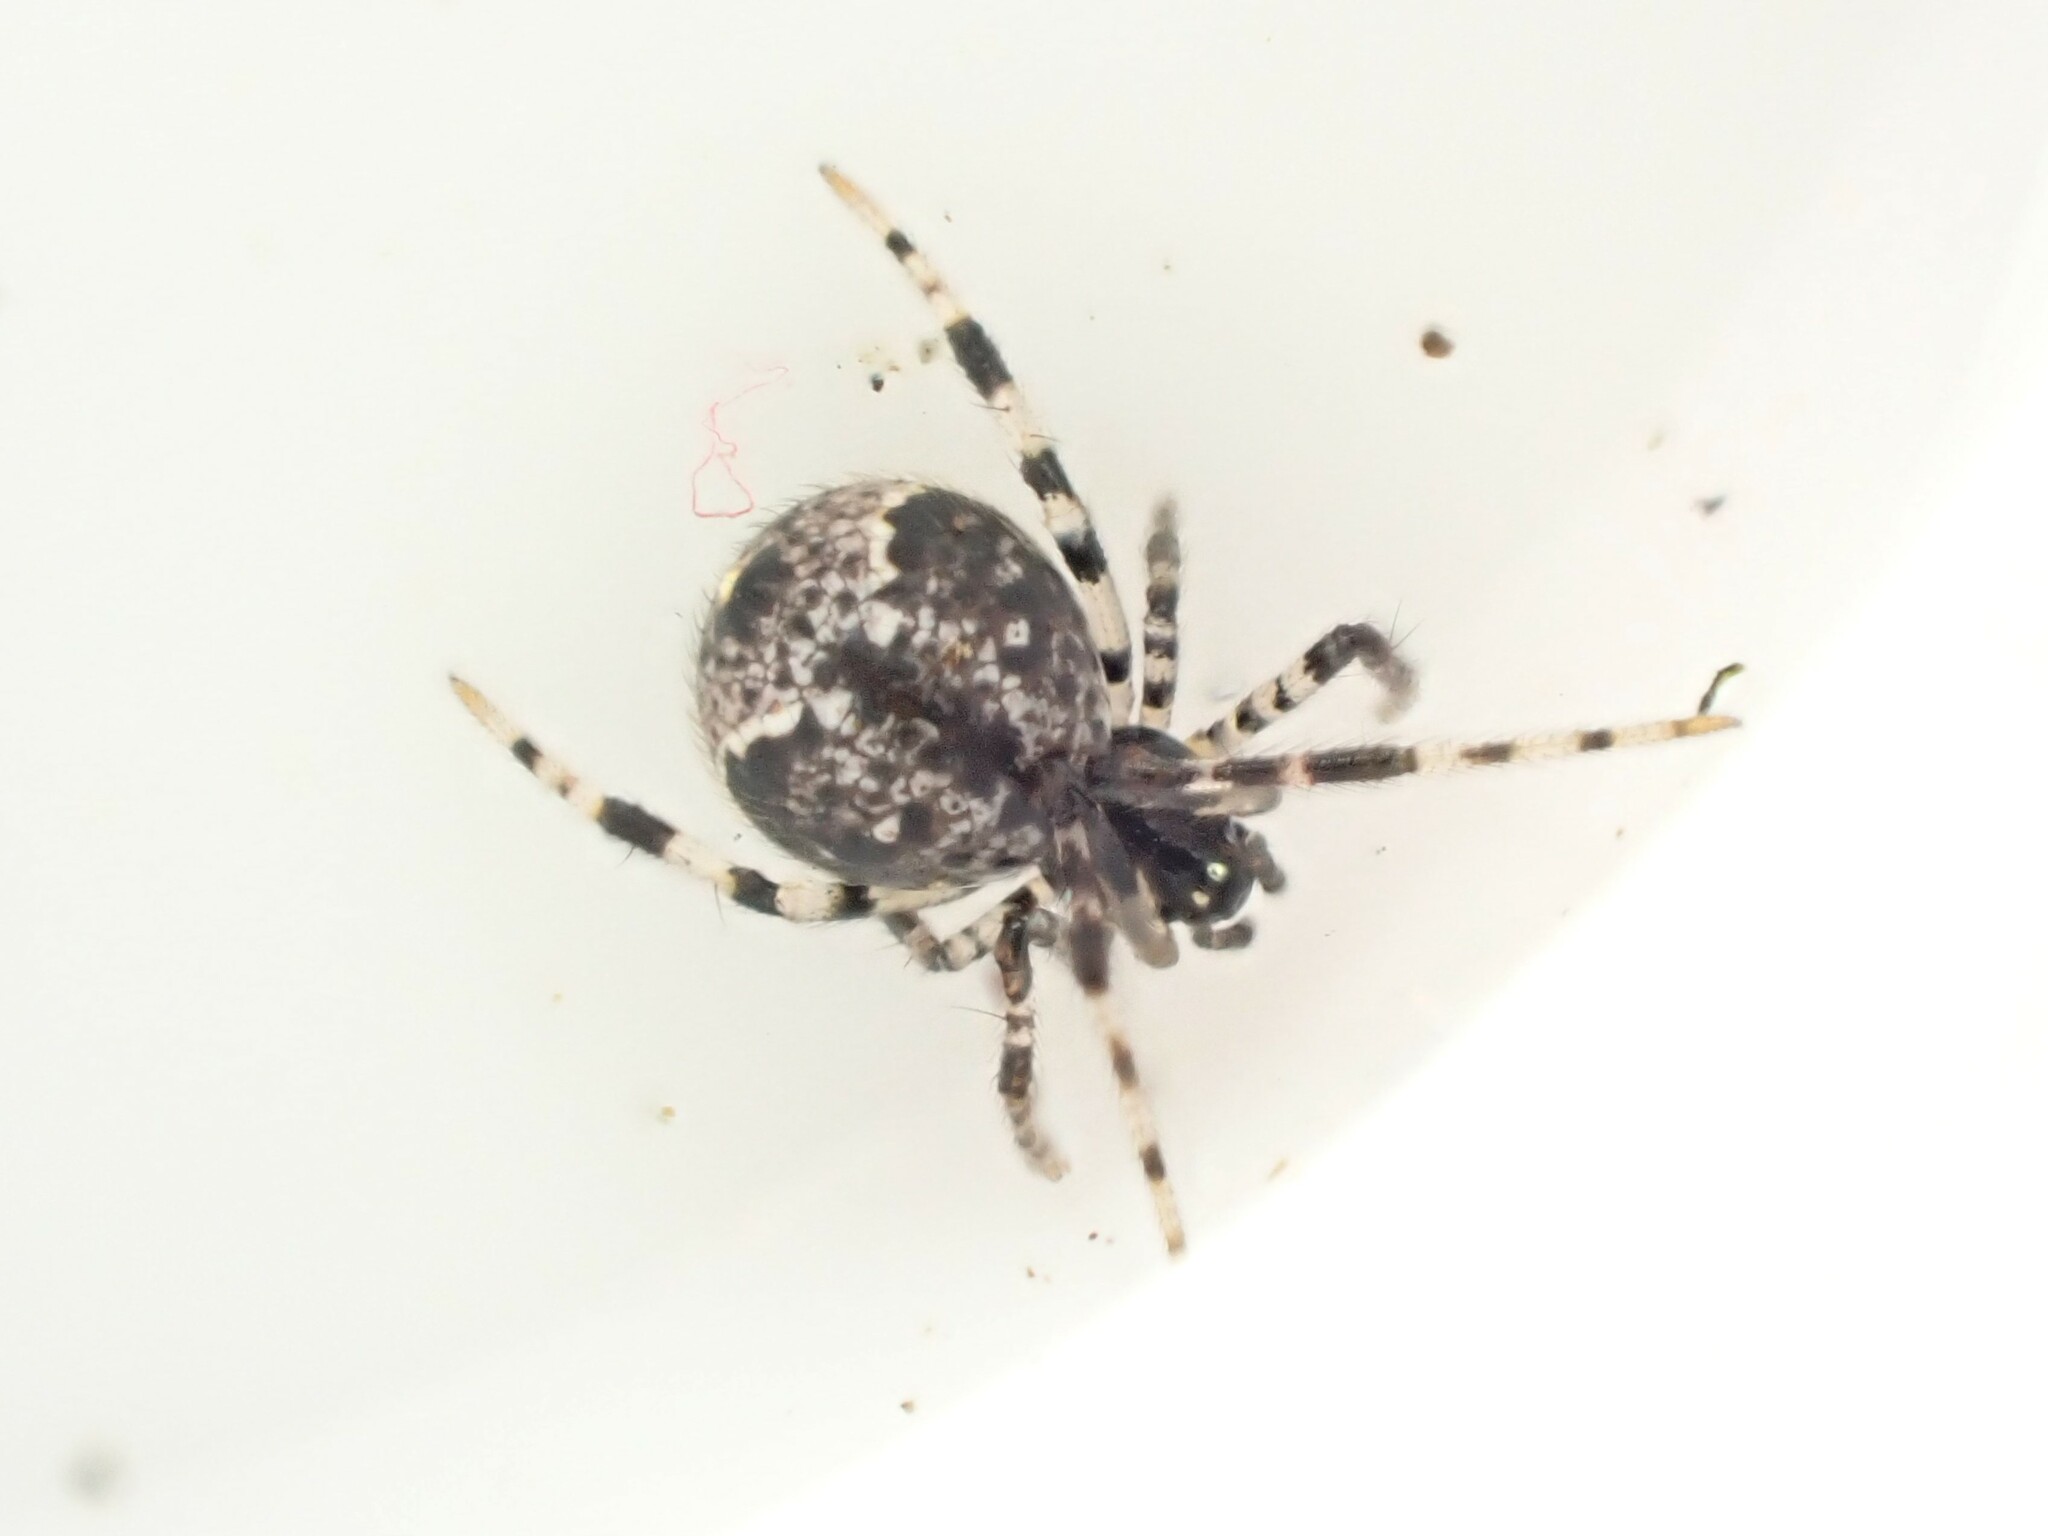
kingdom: Animalia
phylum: Arthropoda
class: Arachnida
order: Araneae
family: Theridiidae
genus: Cryptachaea
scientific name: Cryptachaea blattea
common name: Theridiid spider
